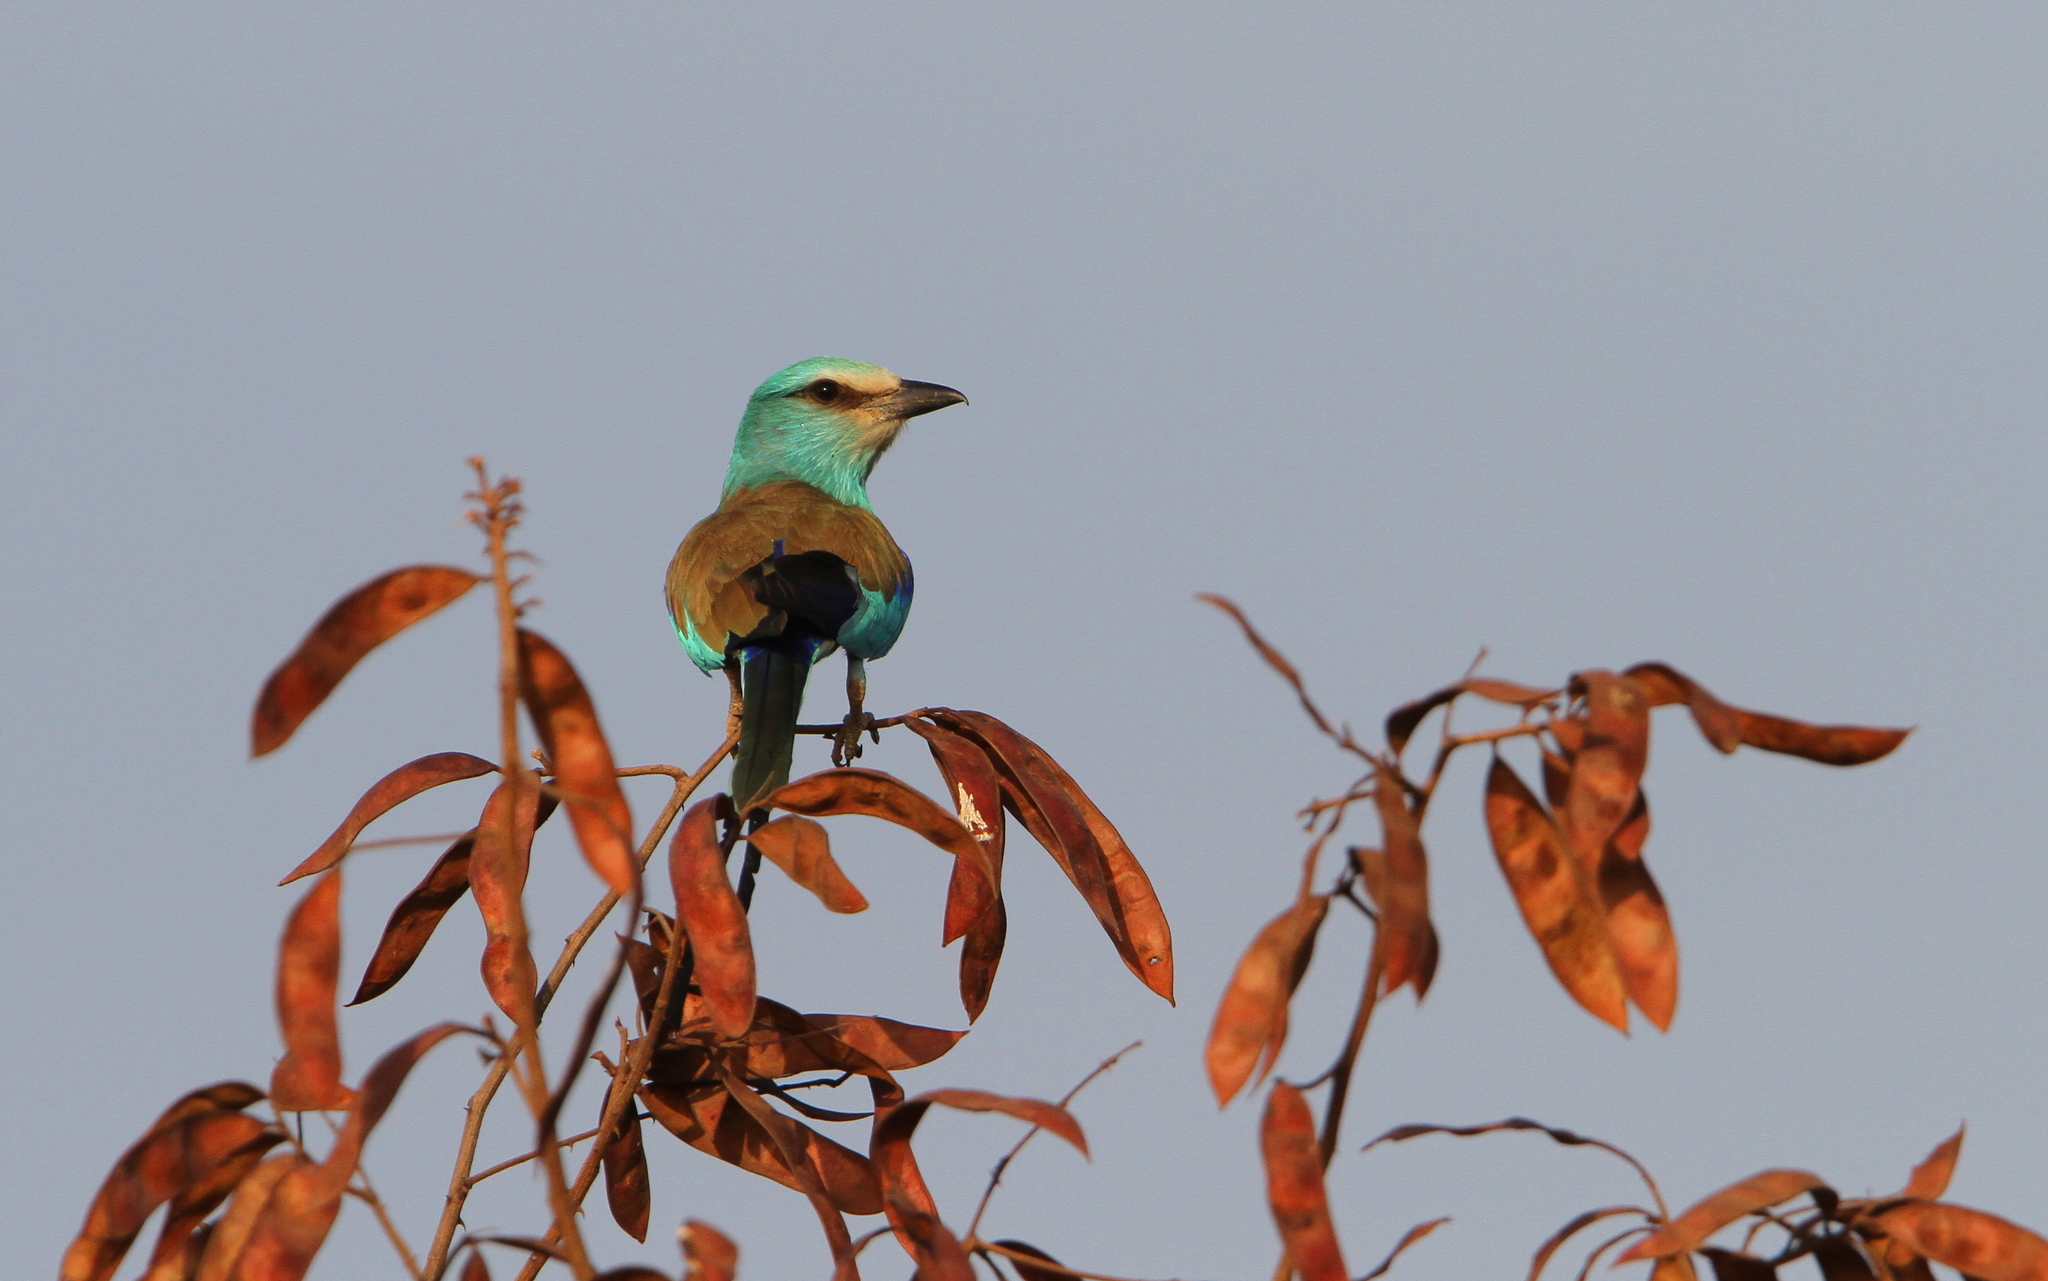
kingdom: Animalia
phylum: Chordata
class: Aves
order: Coraciiformes
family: Coraciidae
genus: Coracias
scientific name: Coracias abyssinicus
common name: Abyssinian roller
